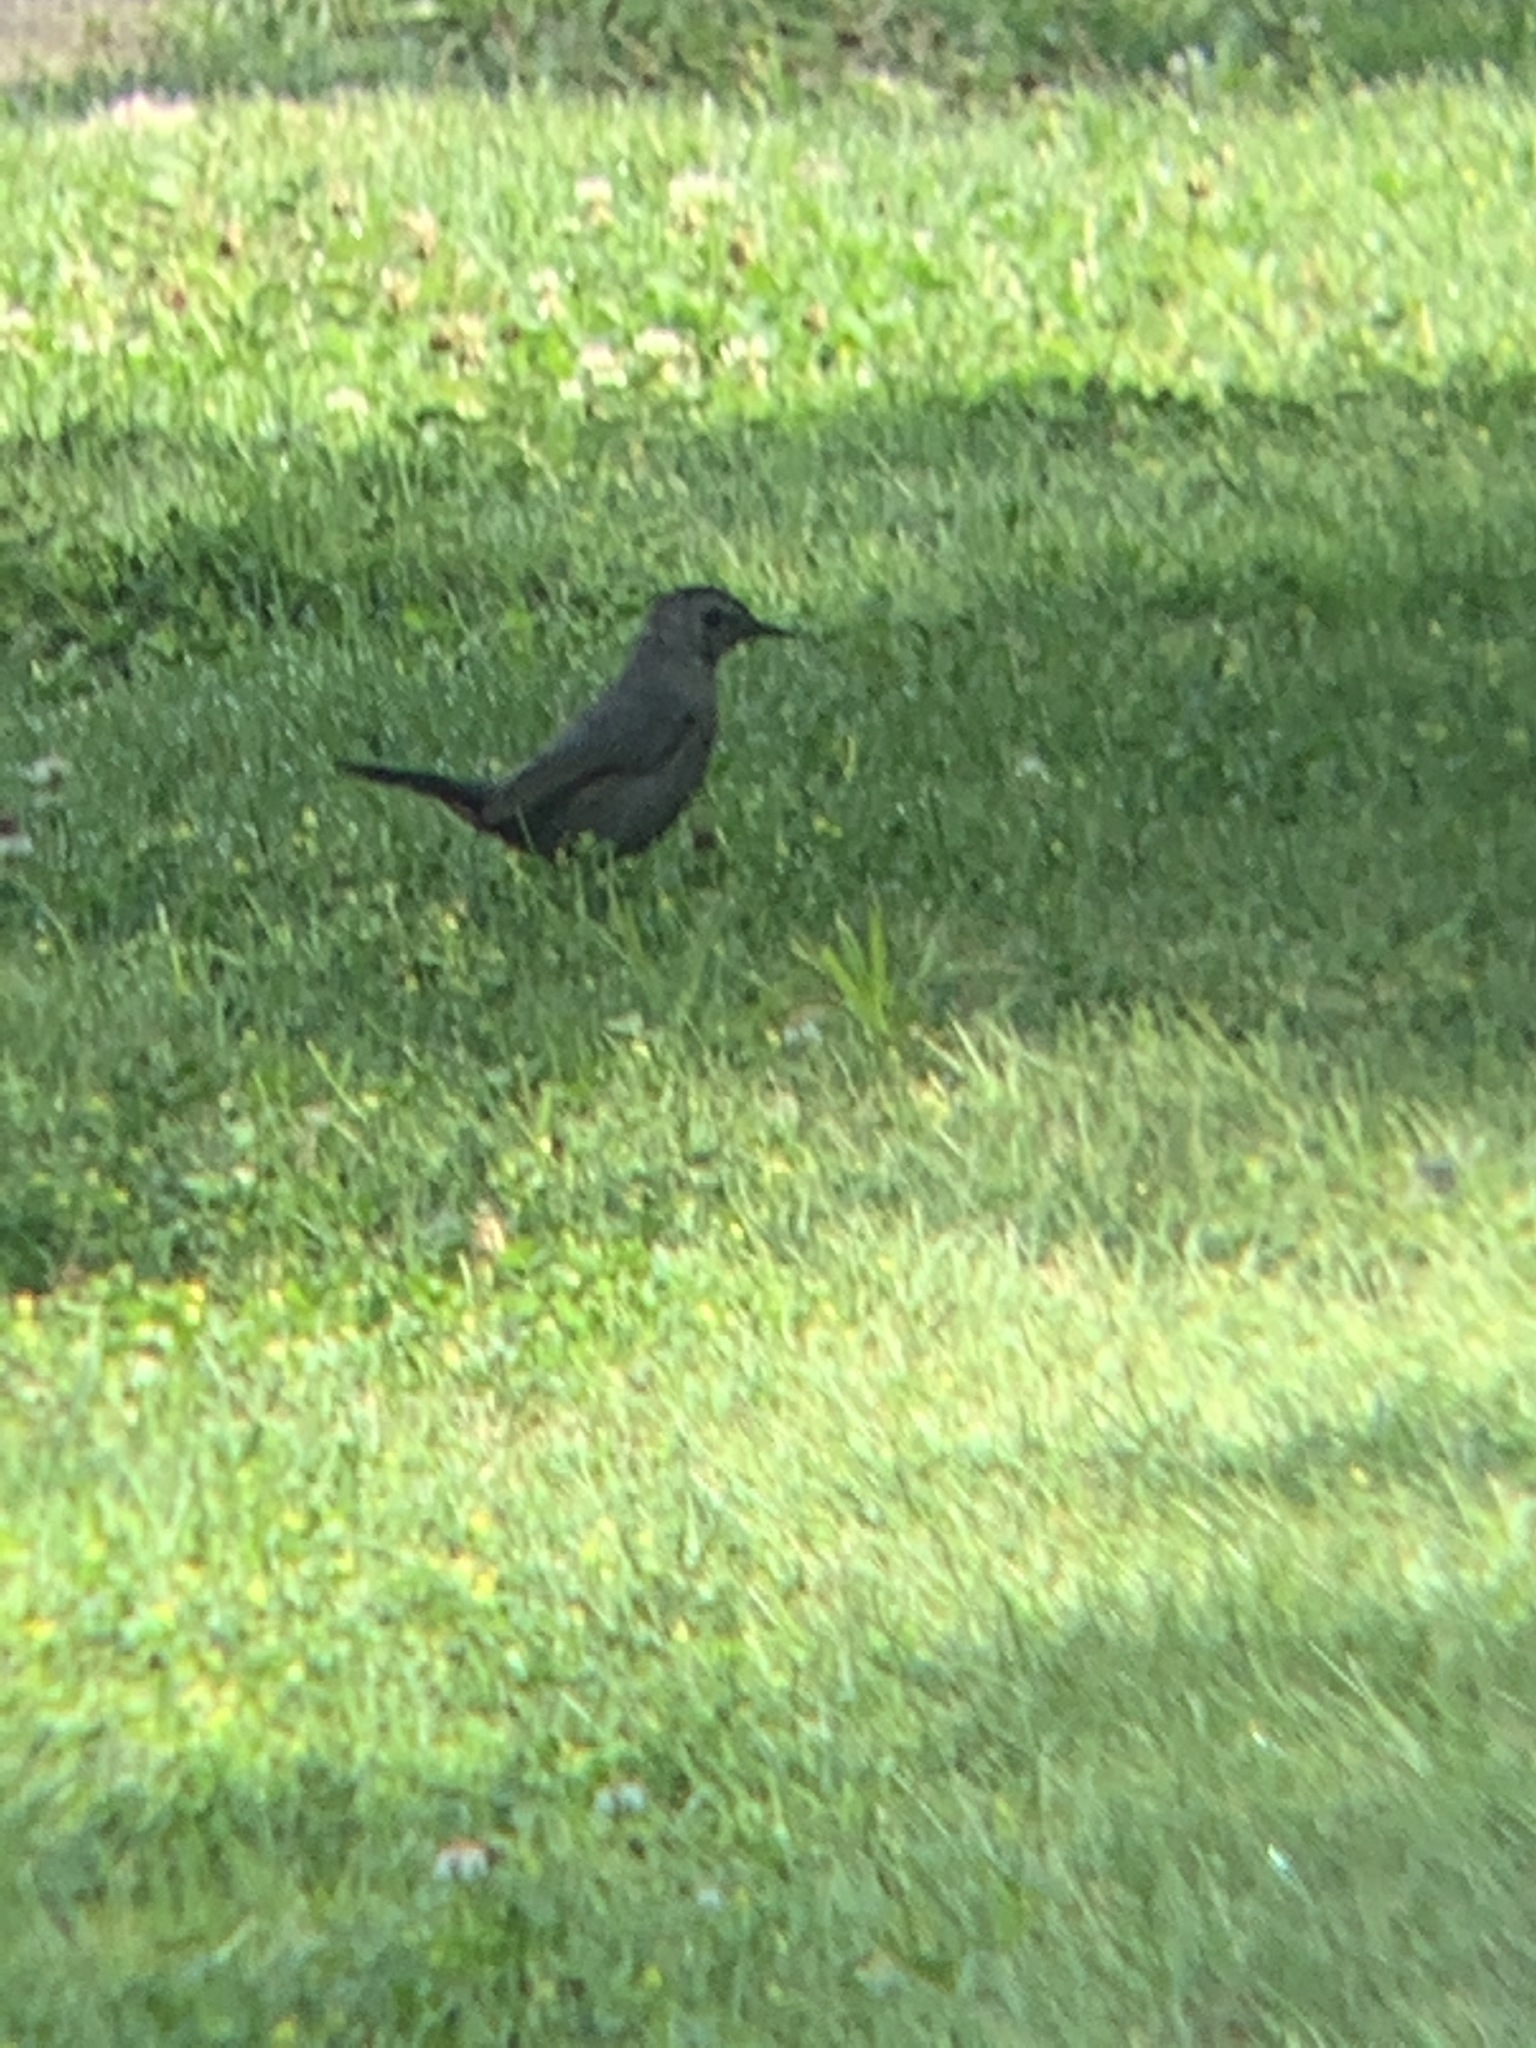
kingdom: Animalia
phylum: Chordata
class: Aves
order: Passeriformes
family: Mimidae
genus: Dumetella
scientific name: Dumetella carolinensis
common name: Gray catbird
